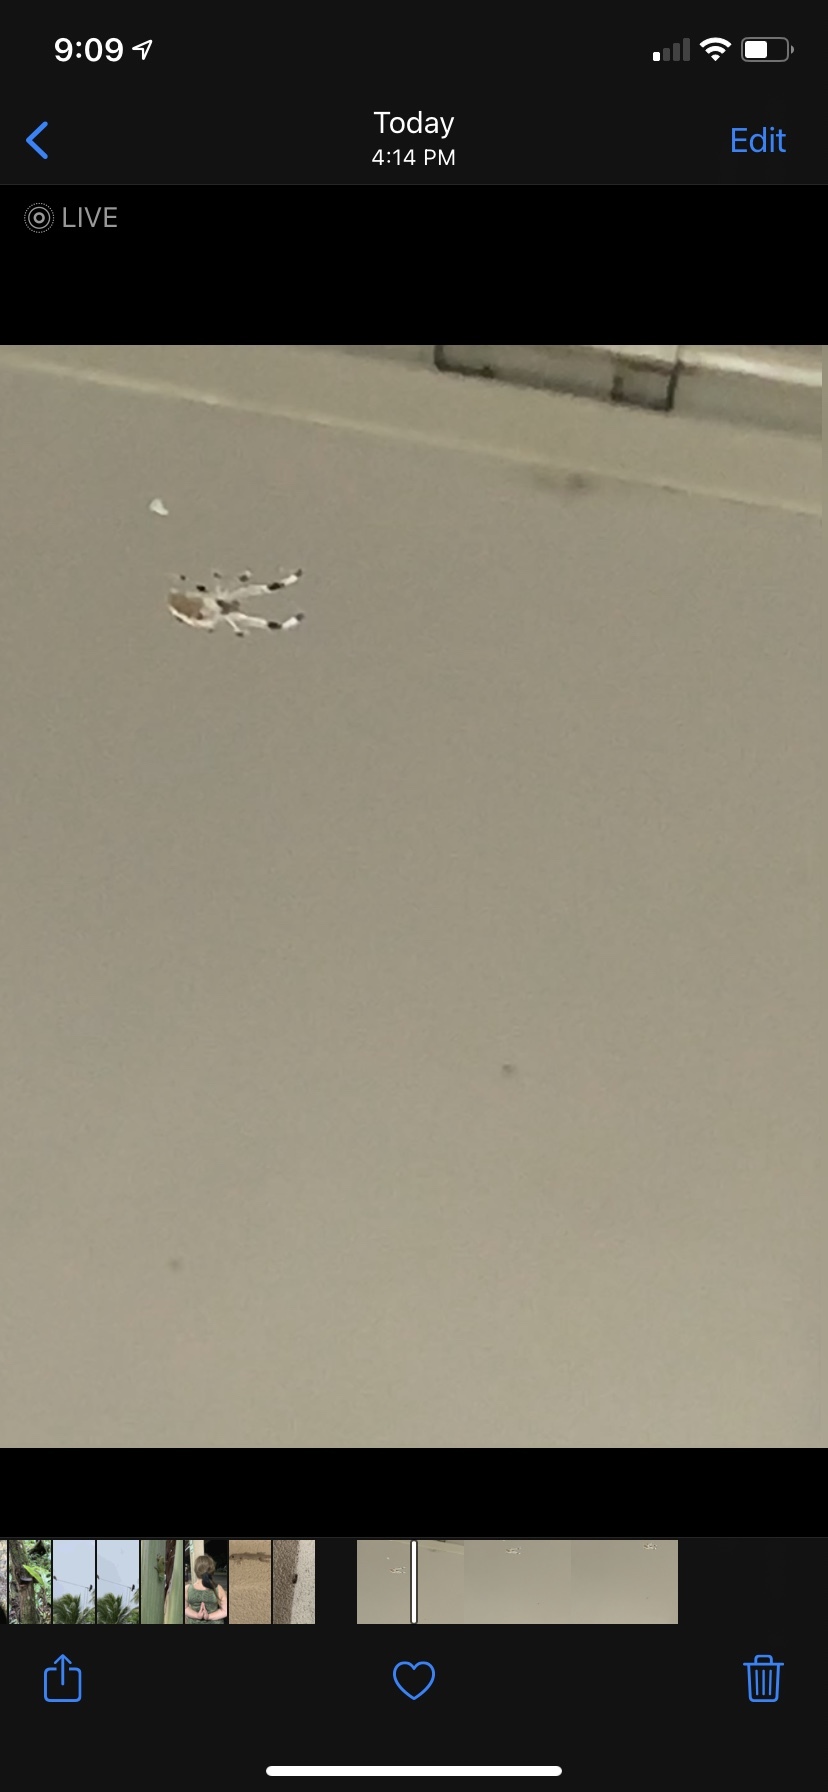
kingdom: Animalia
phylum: Arthropoda
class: Arachnida
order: Araneae
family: Uloboridae
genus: Zosis
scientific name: Zosis geniculata
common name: Hackled orb weavers
